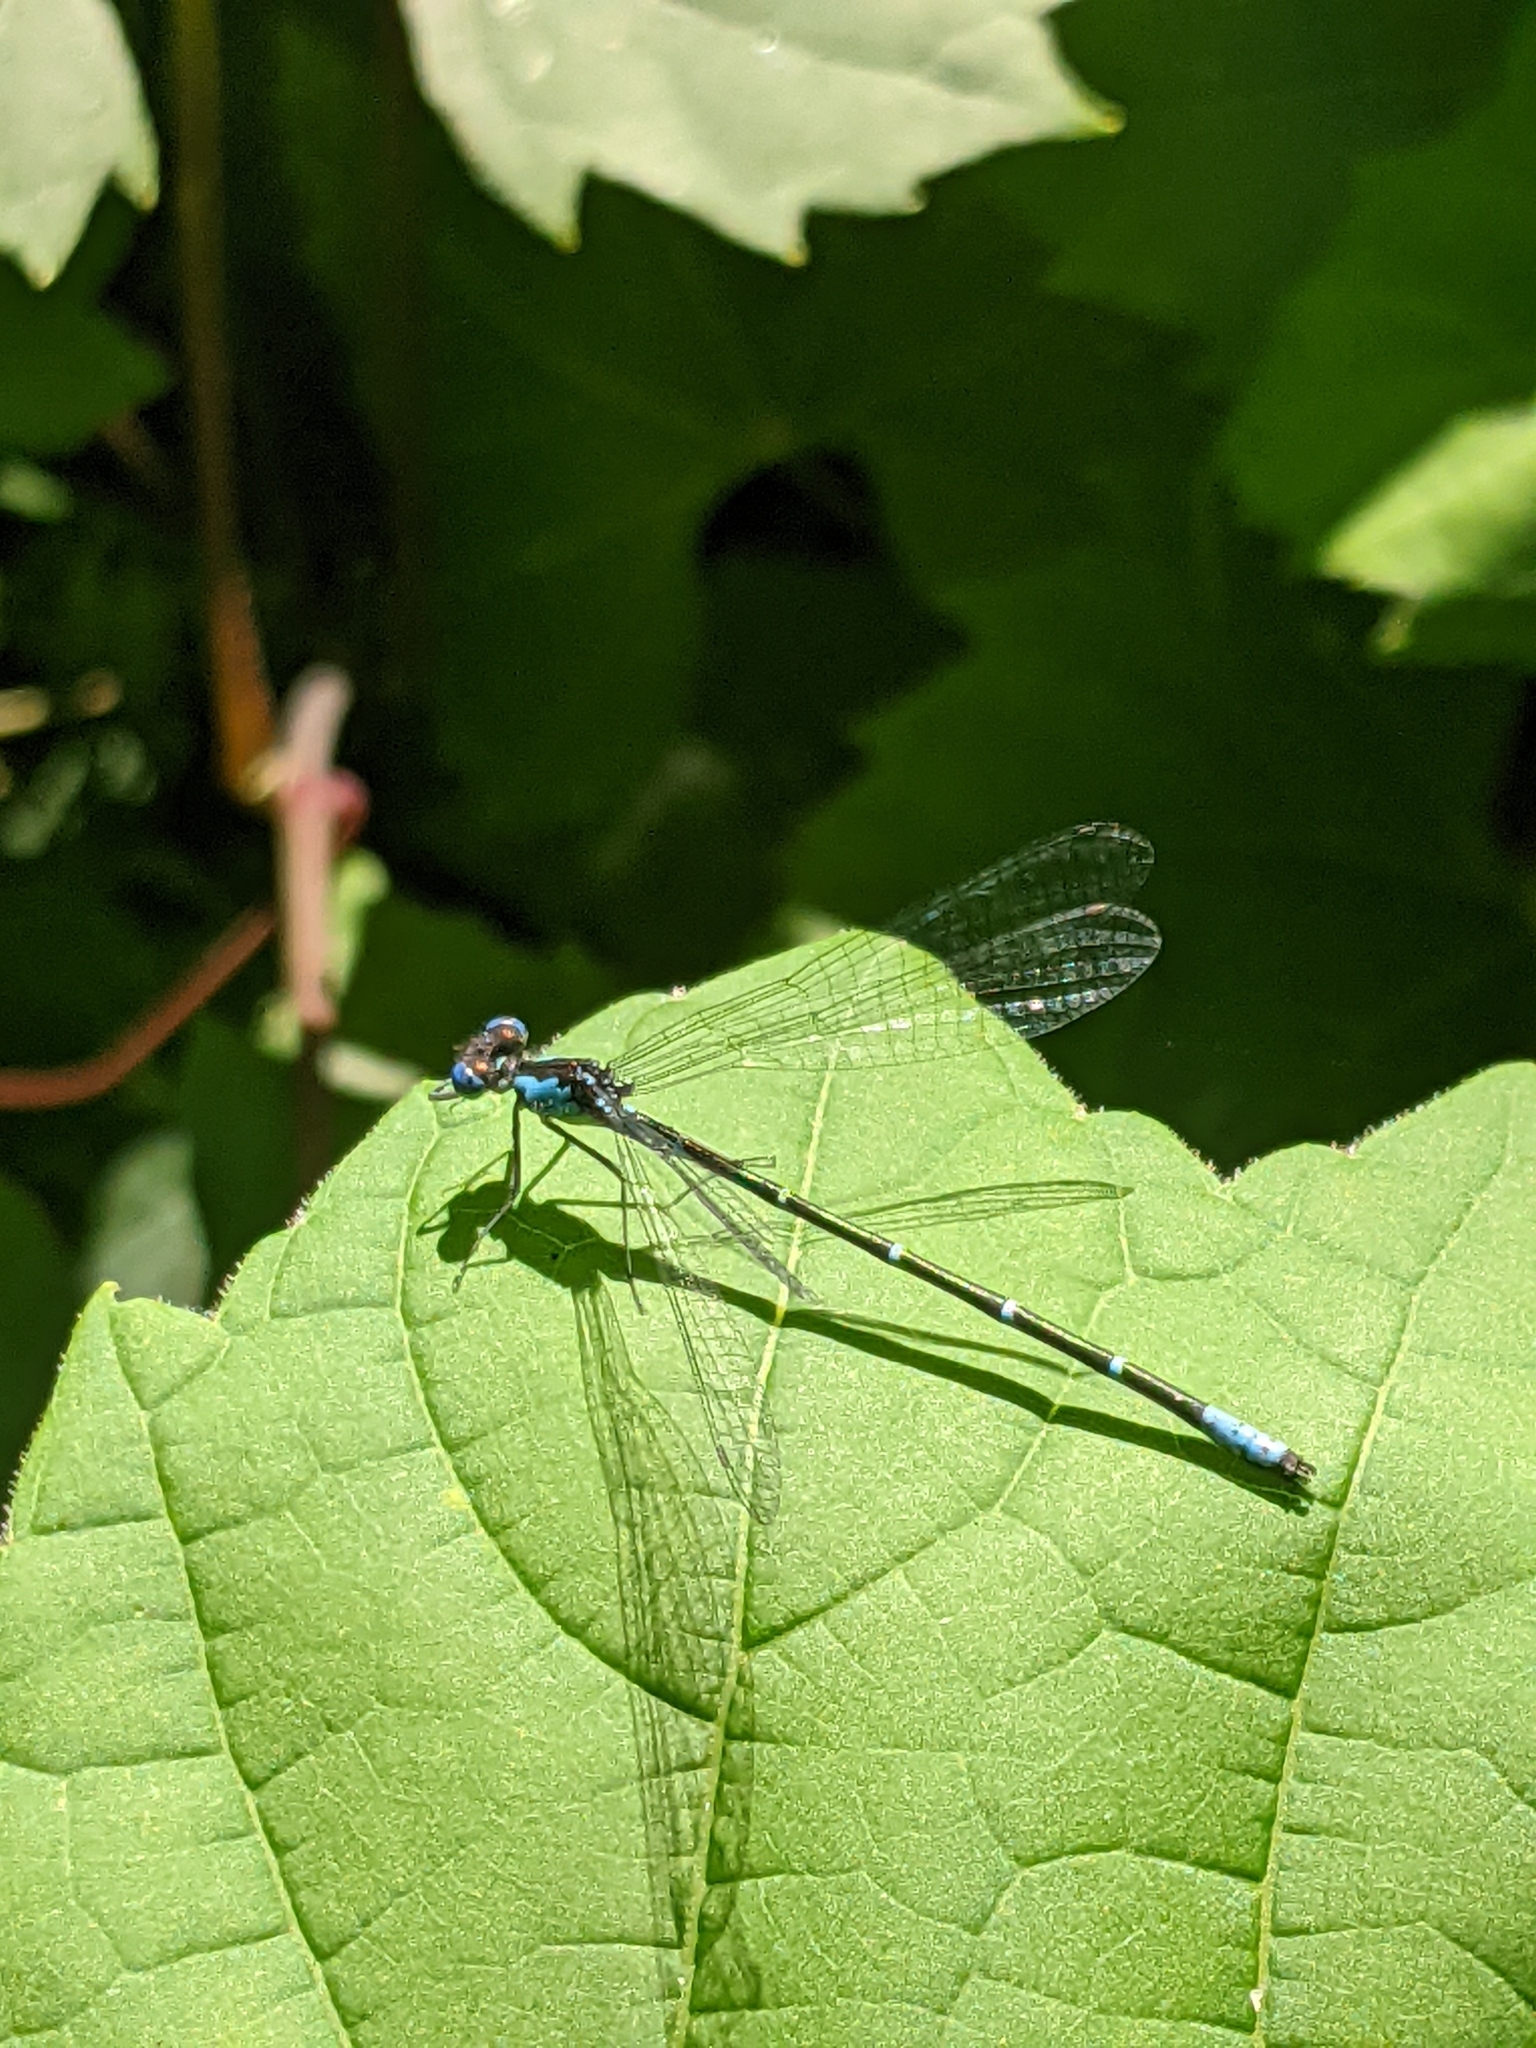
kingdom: Animalia
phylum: Arthropoda
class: Insecta
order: Odonata
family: Coenagrionidae
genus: Chromagrion
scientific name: Chromagrion conditum
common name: Aurora damsel
